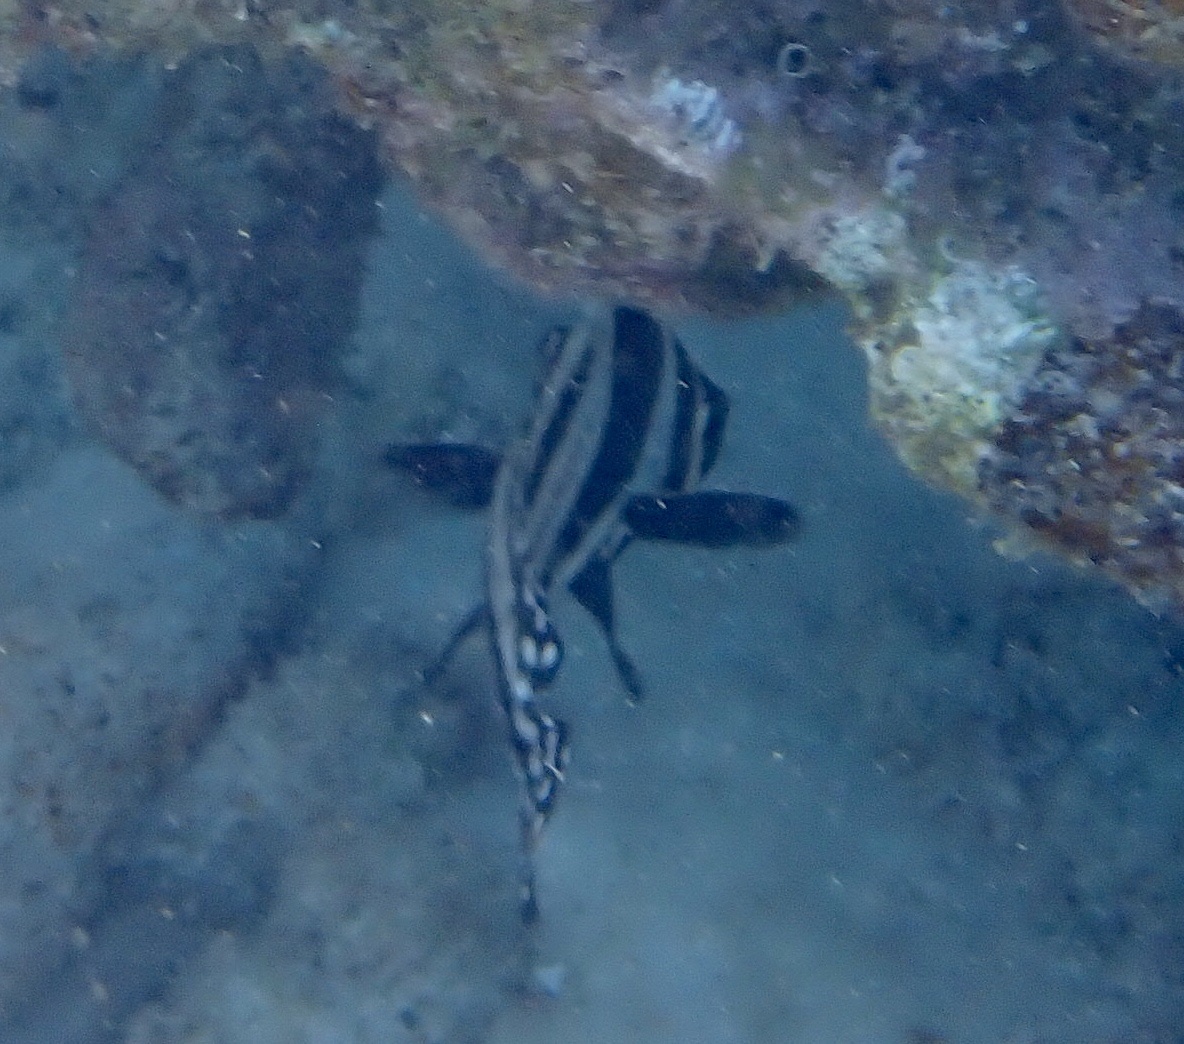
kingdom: Animalia
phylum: Chordata
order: Perciformes
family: Sciaenidae
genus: Equetus
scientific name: Equetus punctatus
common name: Spotted drum
